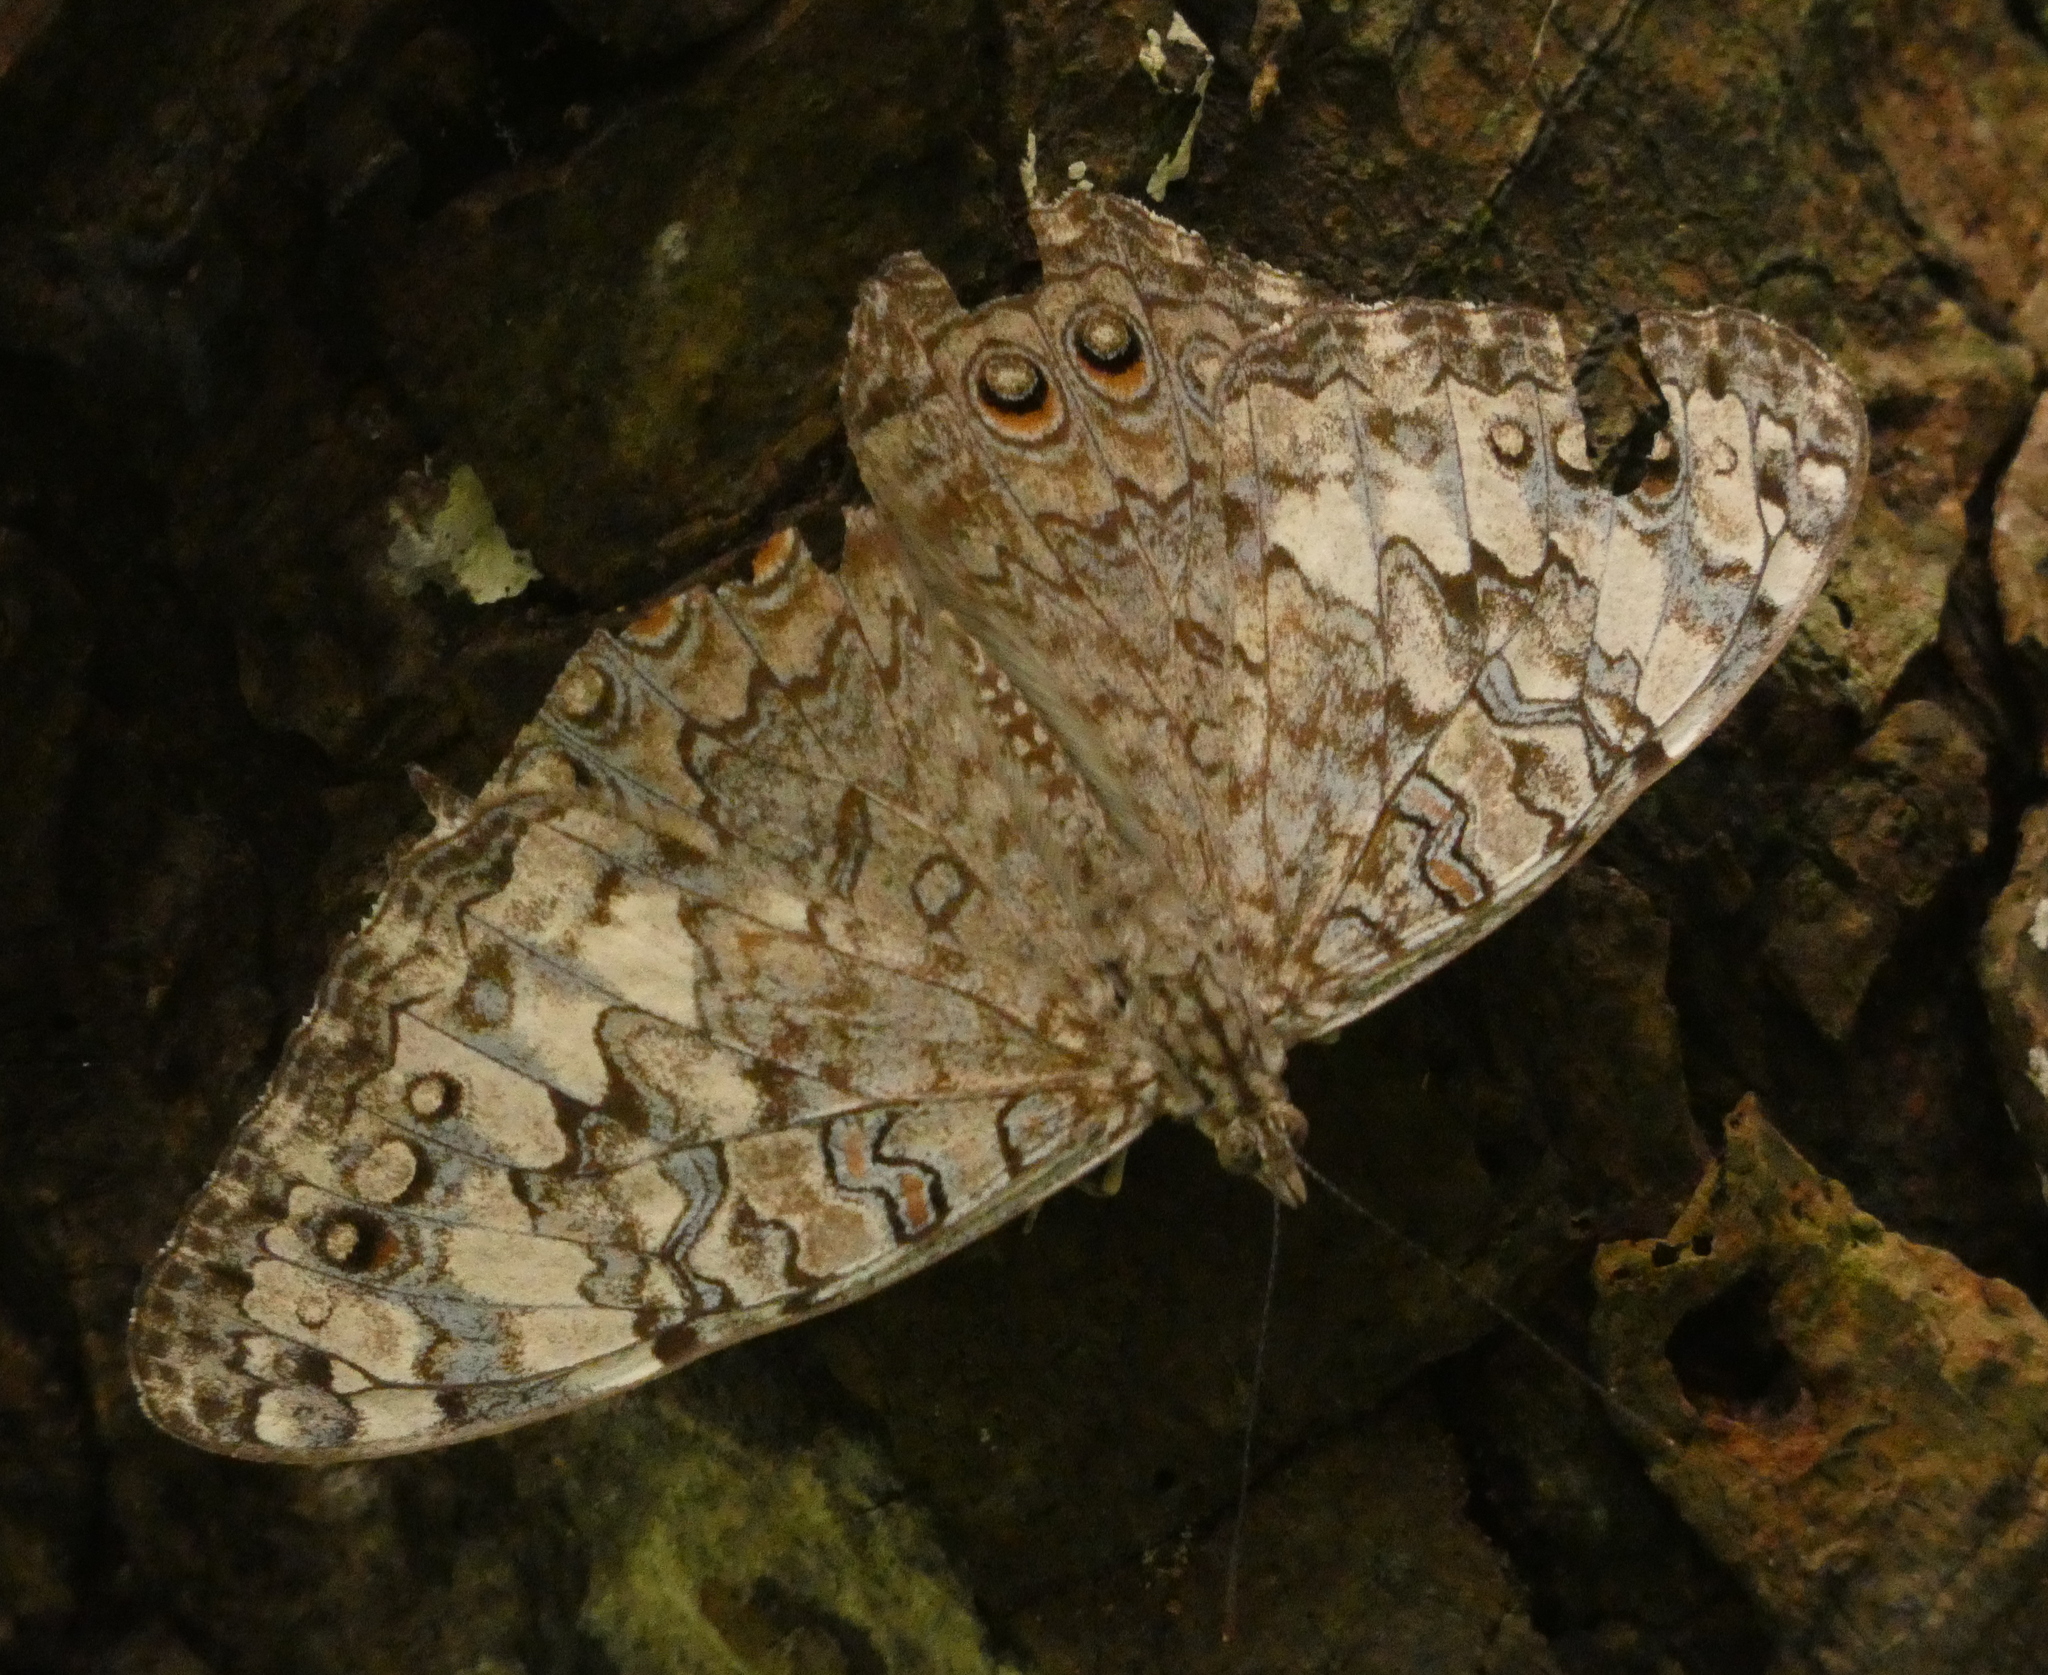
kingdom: Animalia
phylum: Arthropoda
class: Insecta
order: Lepidoptera
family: Nymphalidae
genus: Hamadryas
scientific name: Hamadryas februa
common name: Gray cracker
